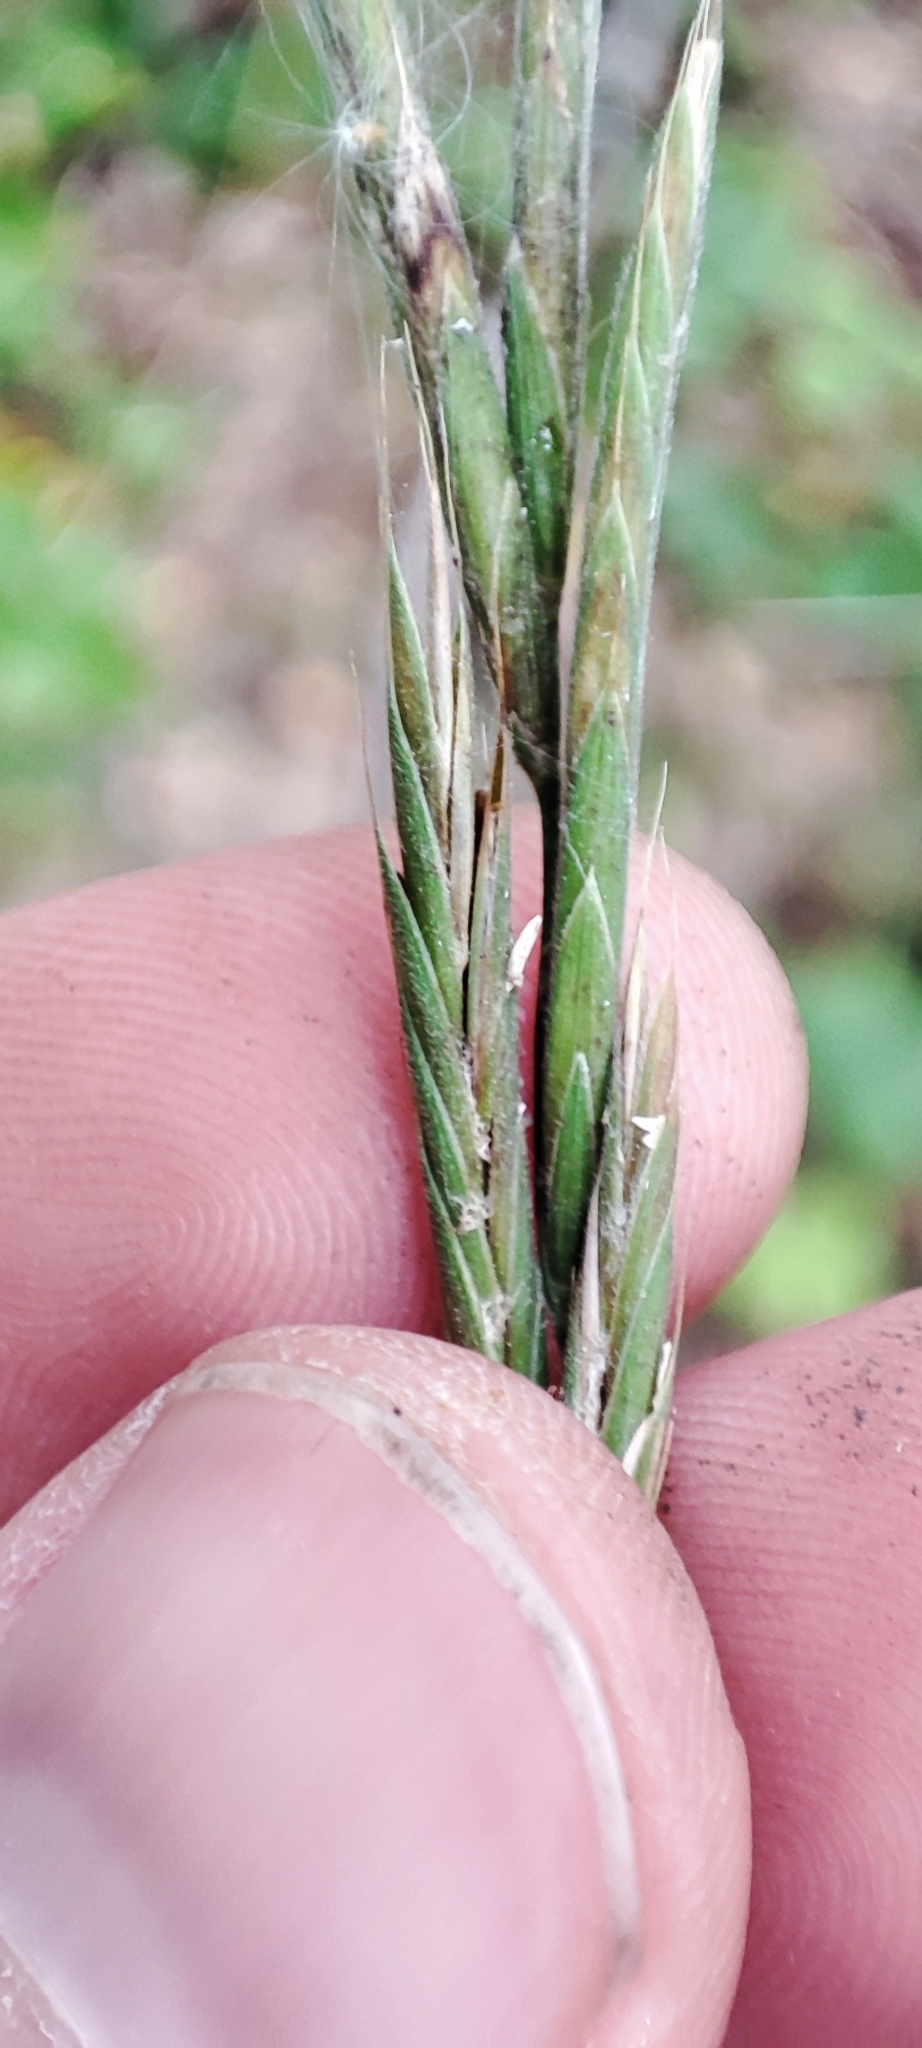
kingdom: Plantae
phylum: Tracheophyta
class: Liliopsida
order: Poales
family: Poaceae
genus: Brachypodium
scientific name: Brachypodium pinnatum
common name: Tor grass
